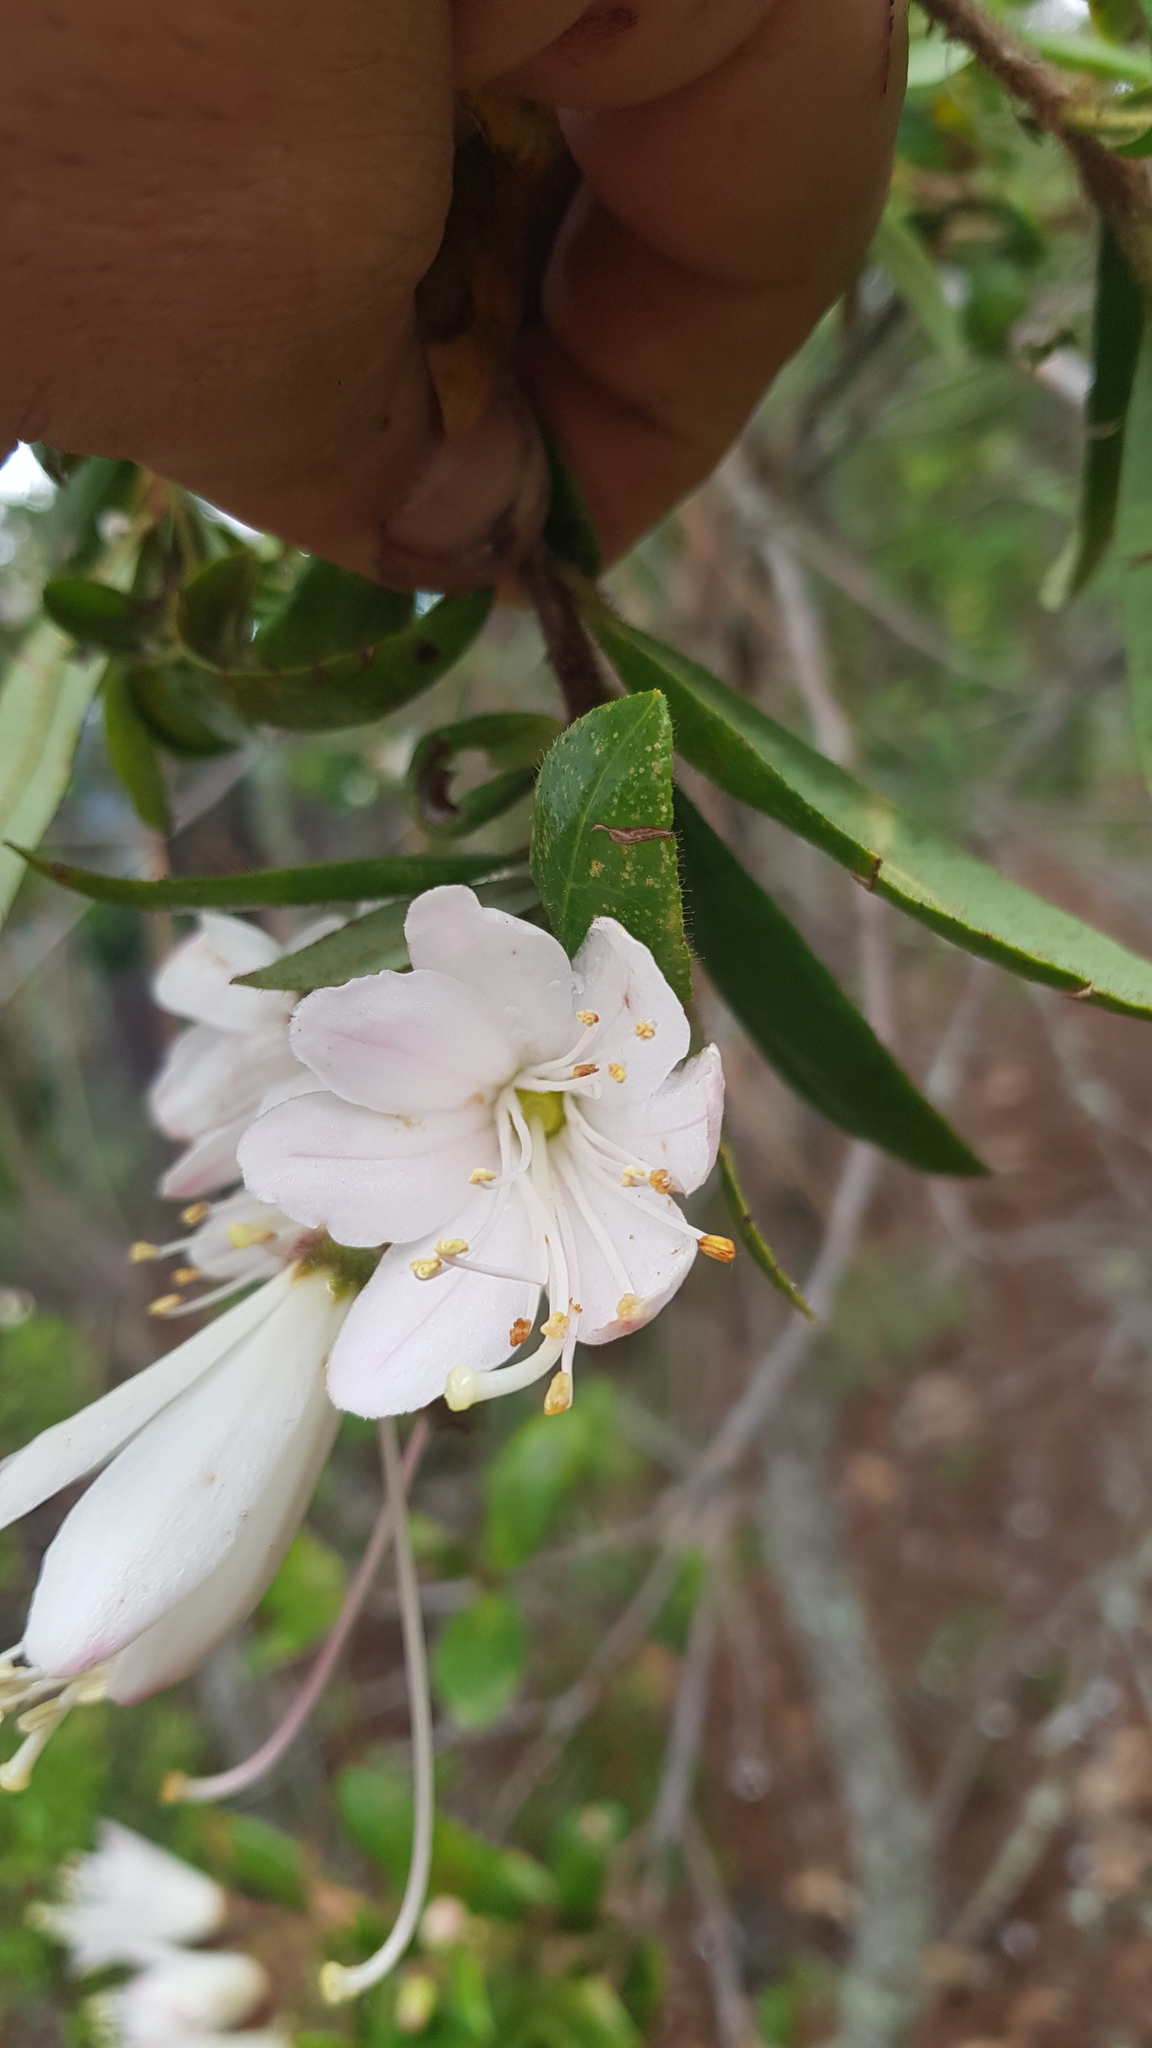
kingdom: Plantae
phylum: Tracheophyta
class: Magnoliopsida
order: Ericales
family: Ericaceae
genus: Bejaria
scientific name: Bejaria aestuans
